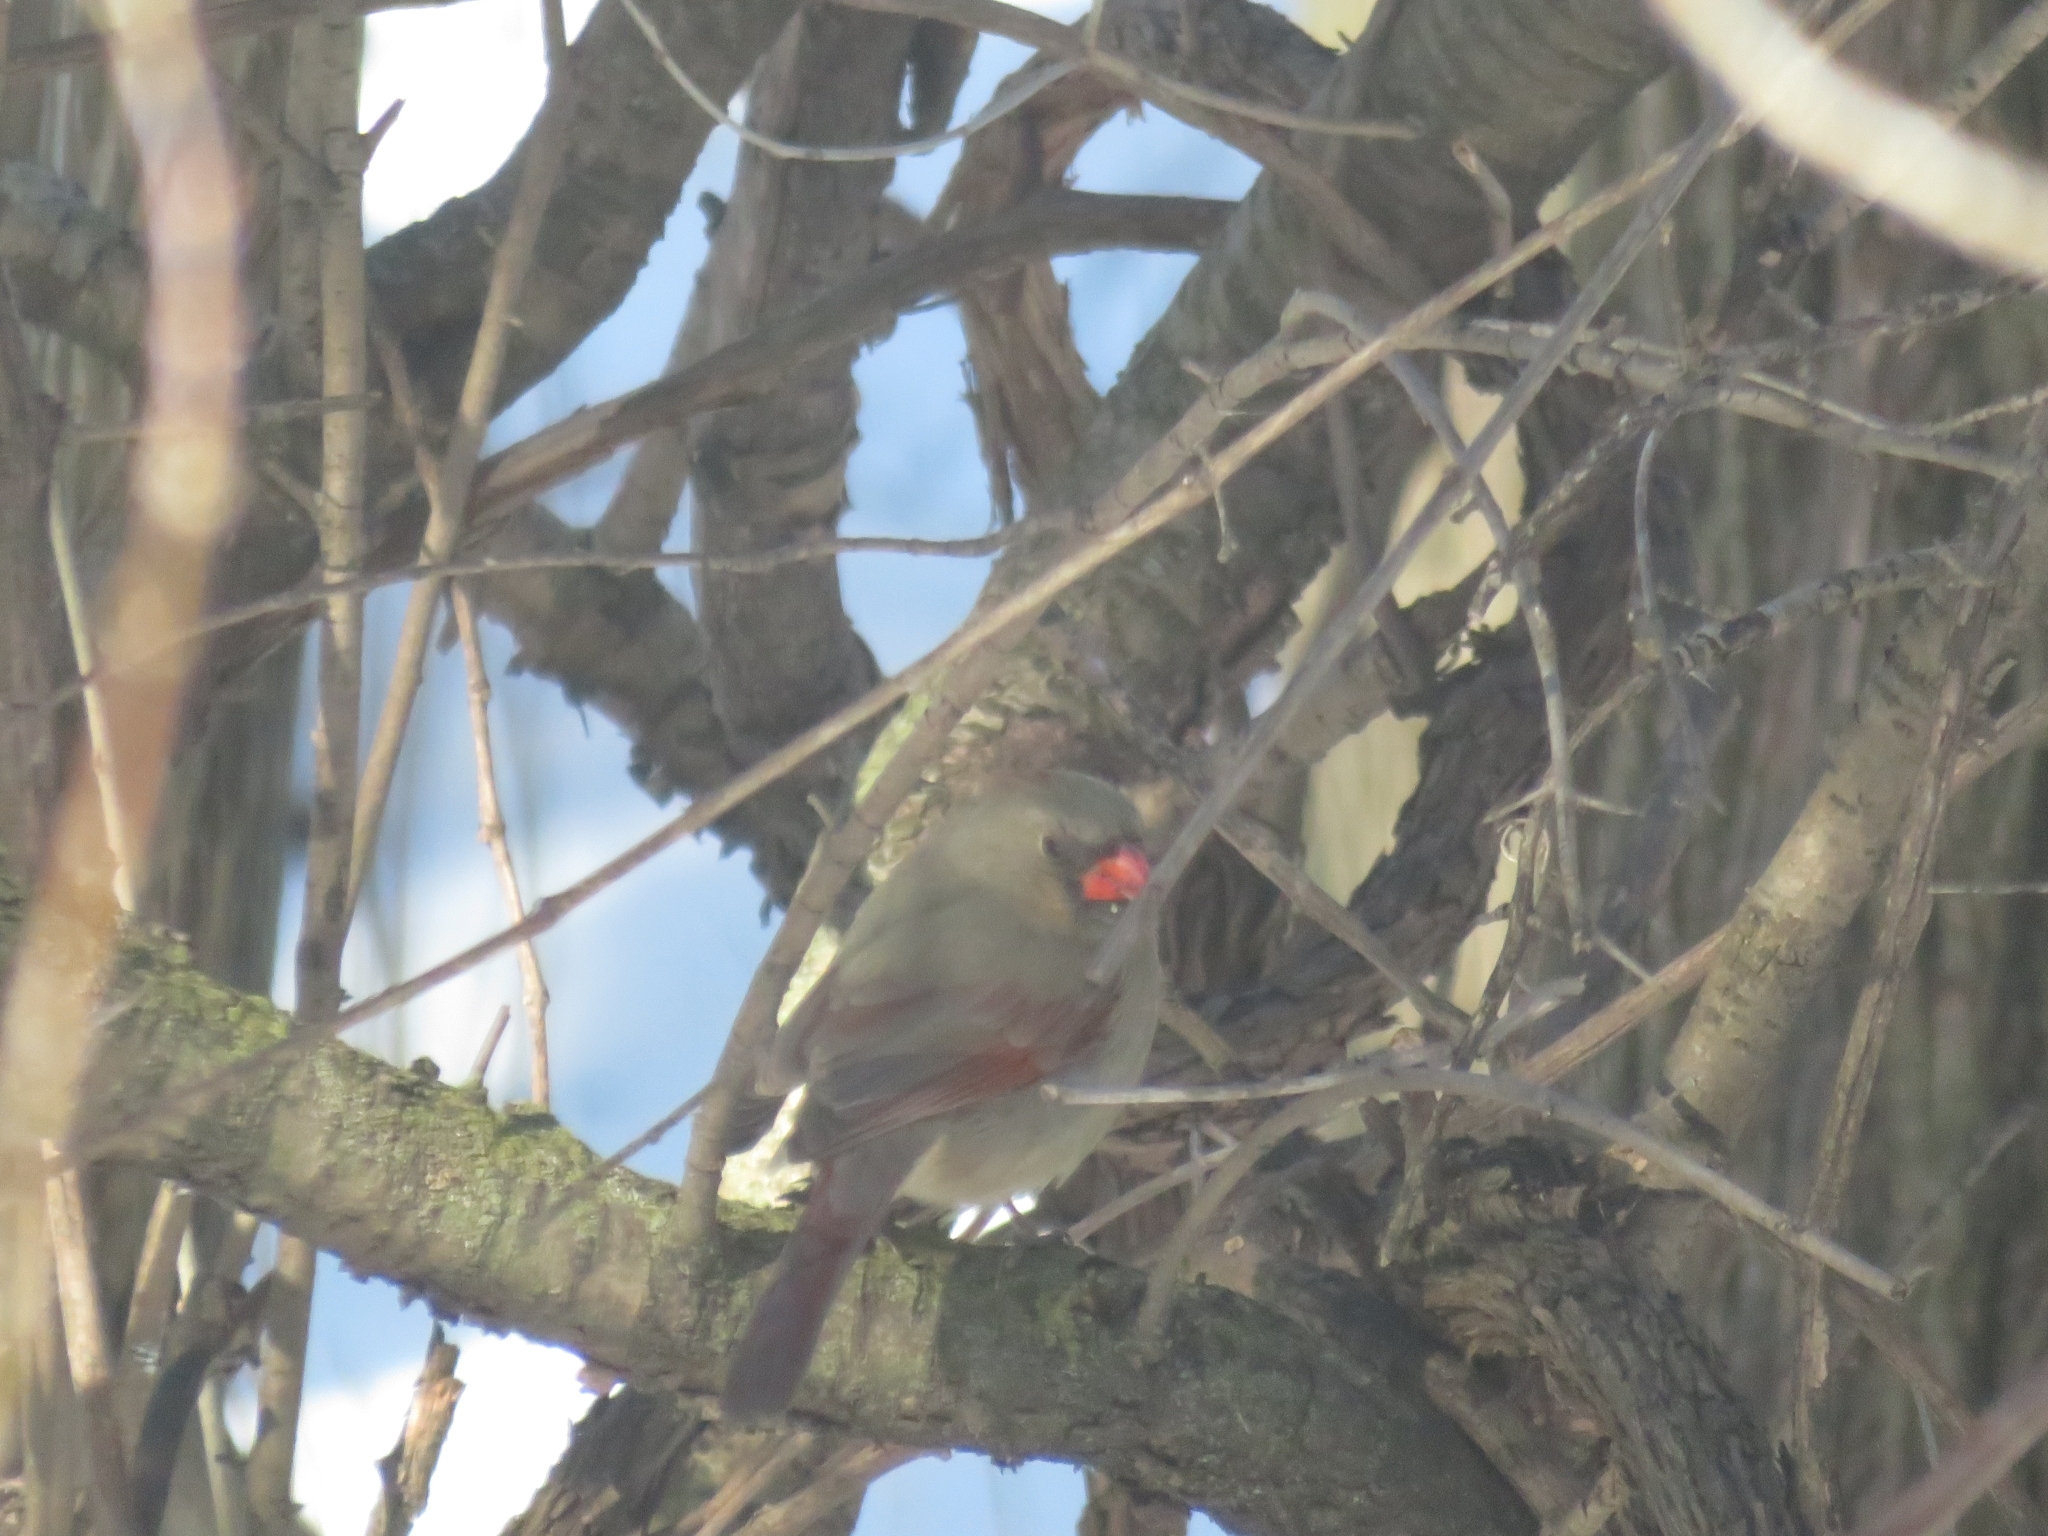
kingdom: Animalia
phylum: Chordata
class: Aves
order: Passeriformes
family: Cardinalidae
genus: Cardinalis
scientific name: Cardinalis cardinalis
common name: Northern cardinal
